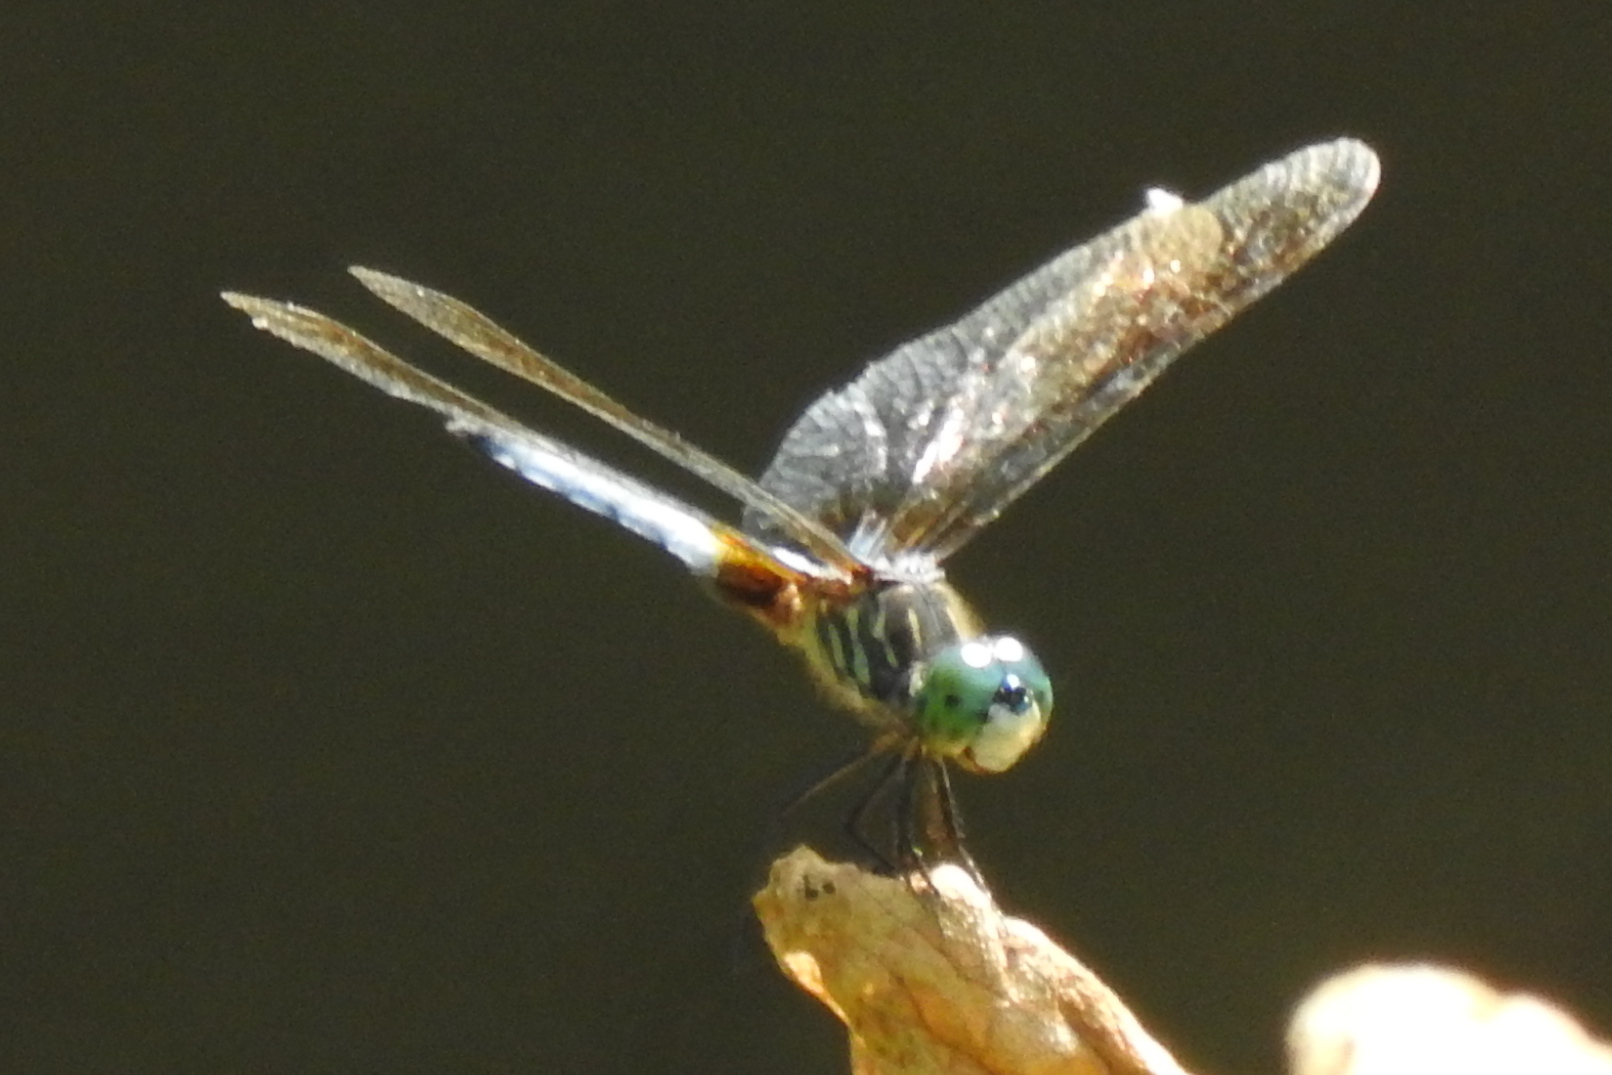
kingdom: Animalia
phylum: Arthropoda
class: Insecta
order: Odonata
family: Libellulidae
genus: Pachydiplax
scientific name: Pachydiplax longipennis
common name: Blue dasher
